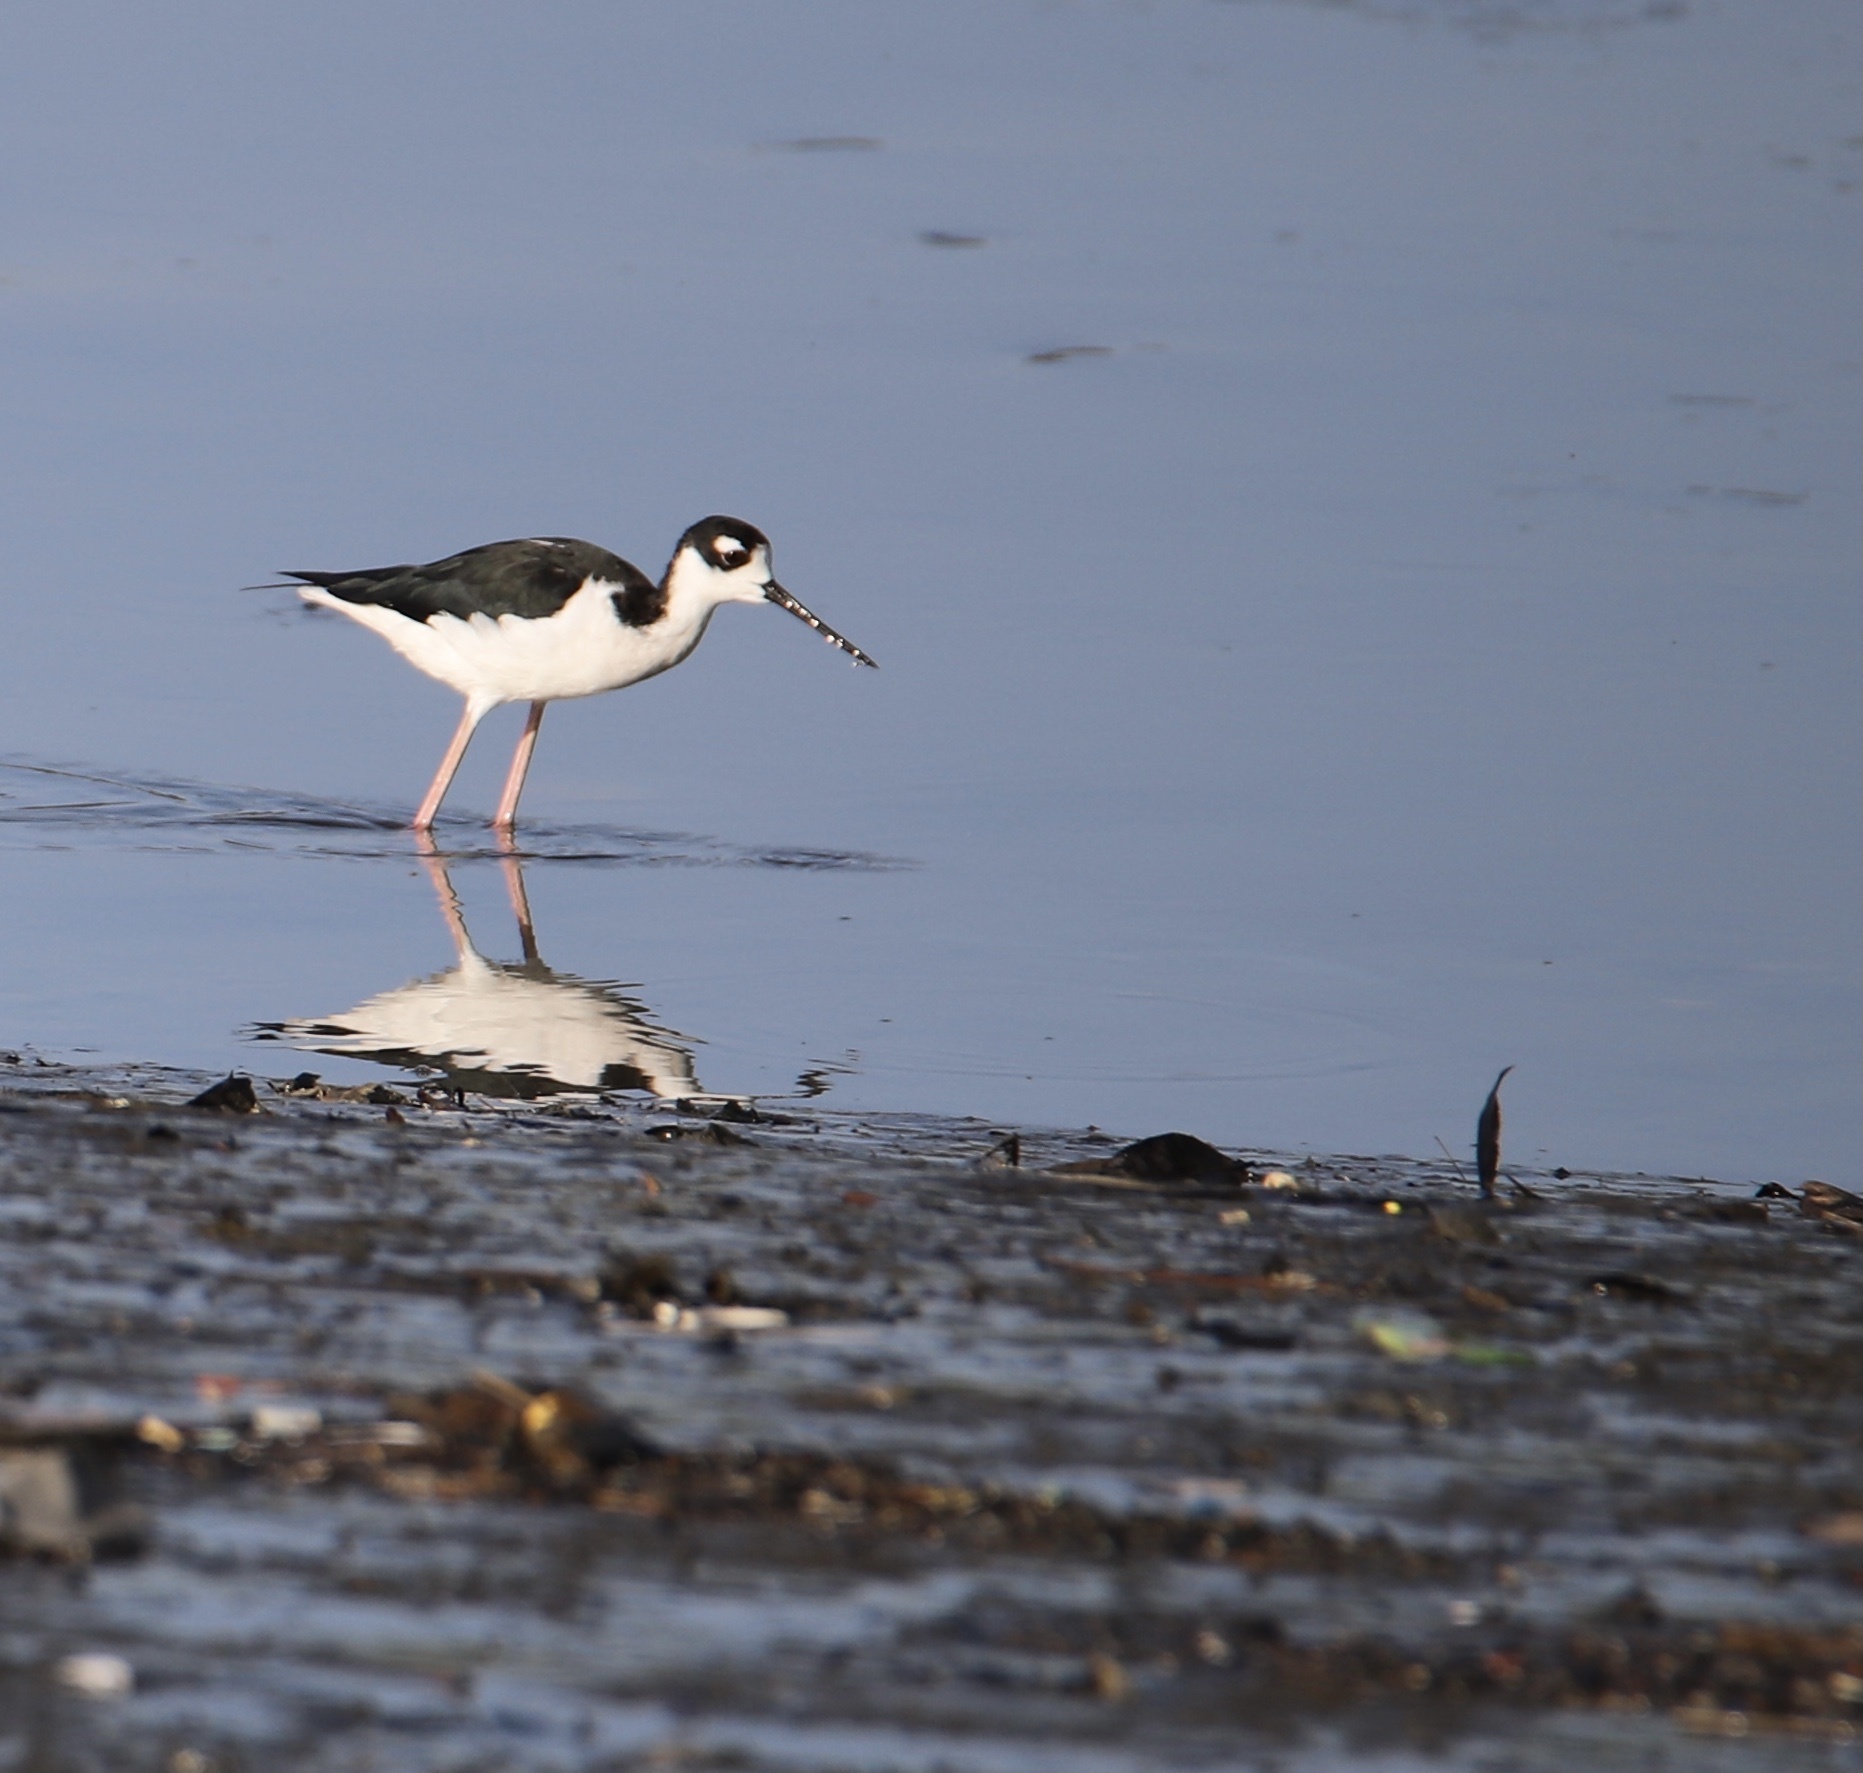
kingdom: Animalia
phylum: Chordata
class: Aves
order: Charadriiformes
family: Recurvirostridae
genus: Himantopus
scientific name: Himantopus mexicanus
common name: Black-necked stilt
